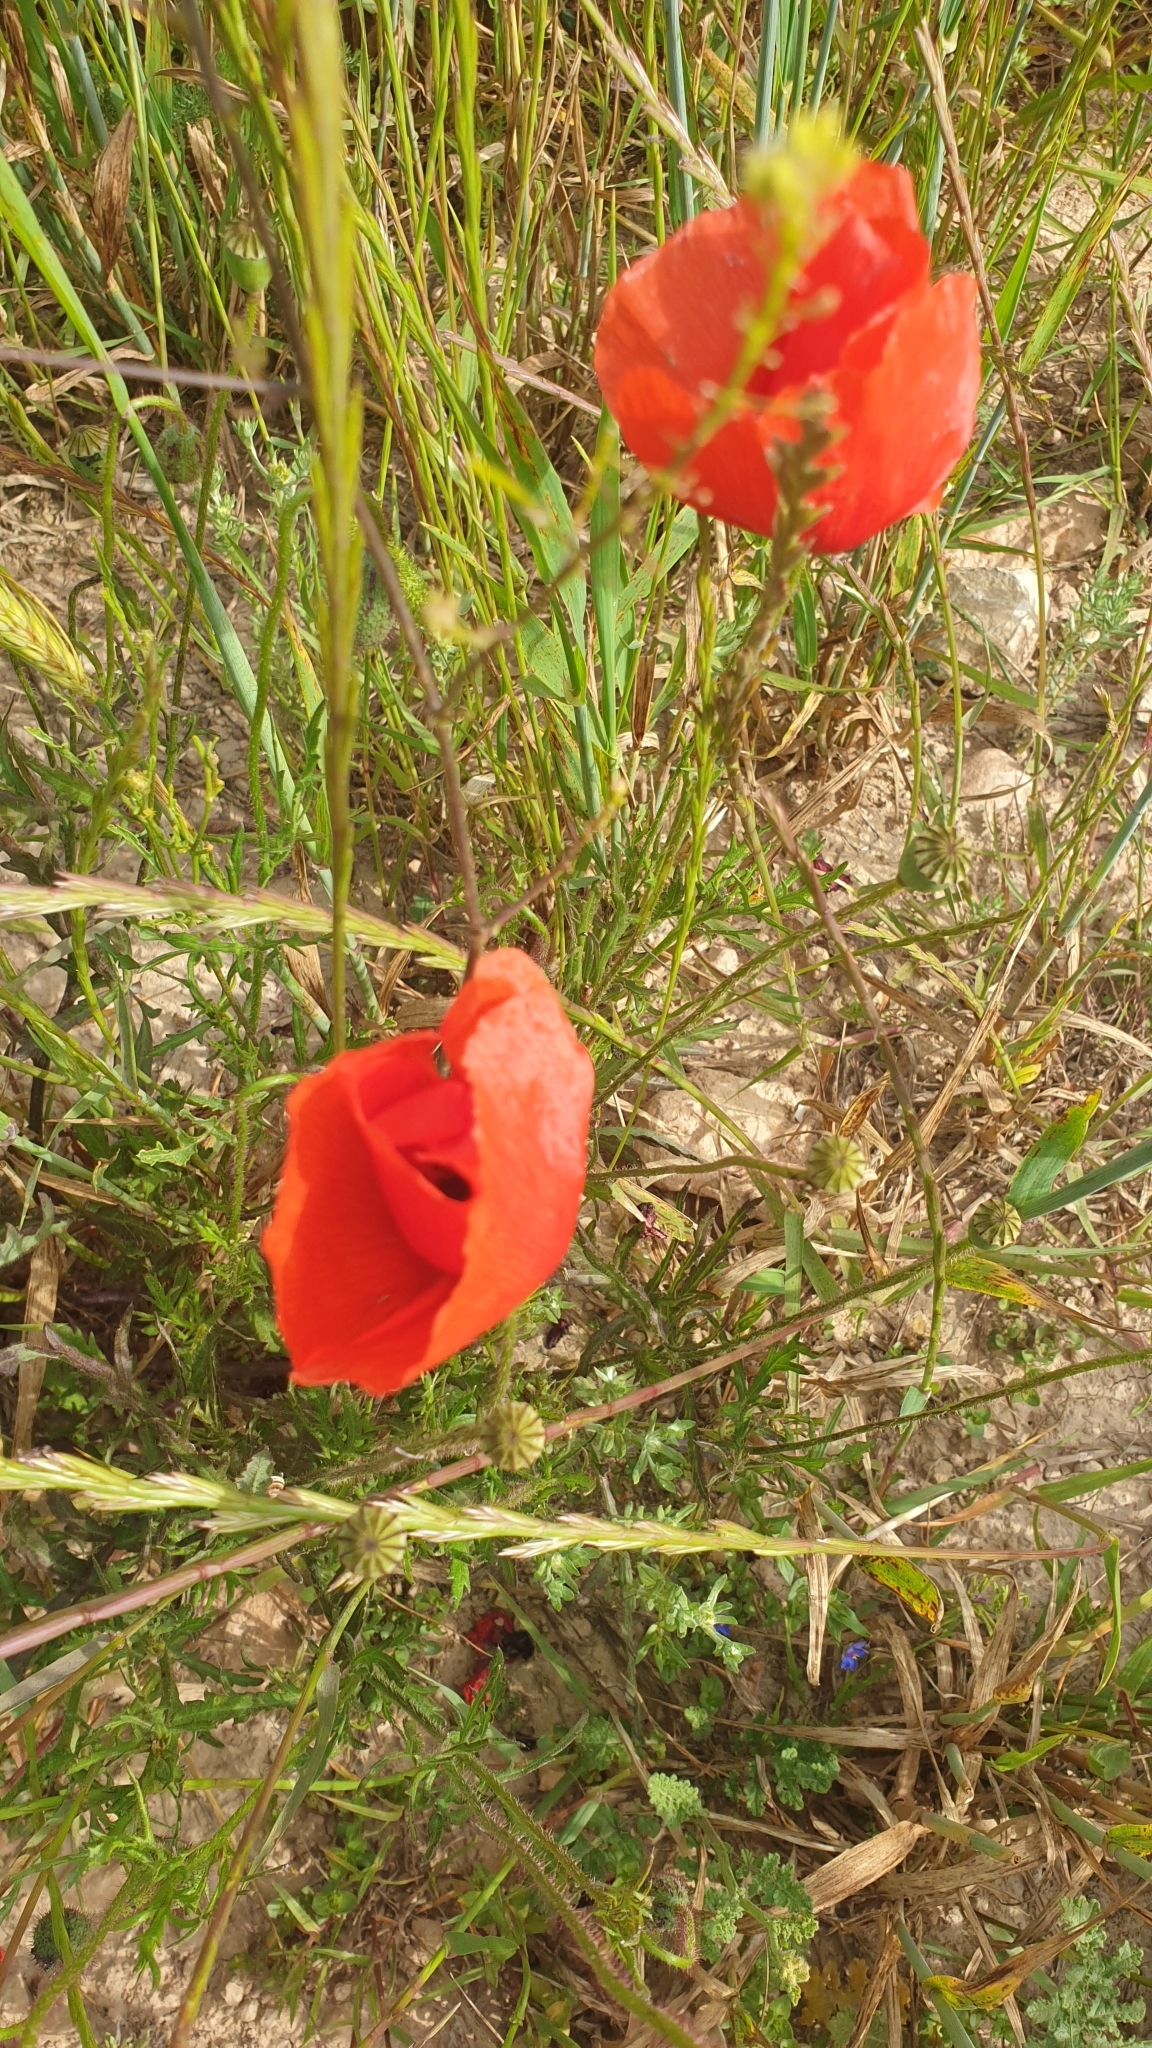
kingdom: Plantae
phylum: Tracheophyta
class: Magnoliopsida
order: Ranunculales
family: Papaveraceae
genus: Papaver
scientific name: Papaver rhoeas
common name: Corn poppy
